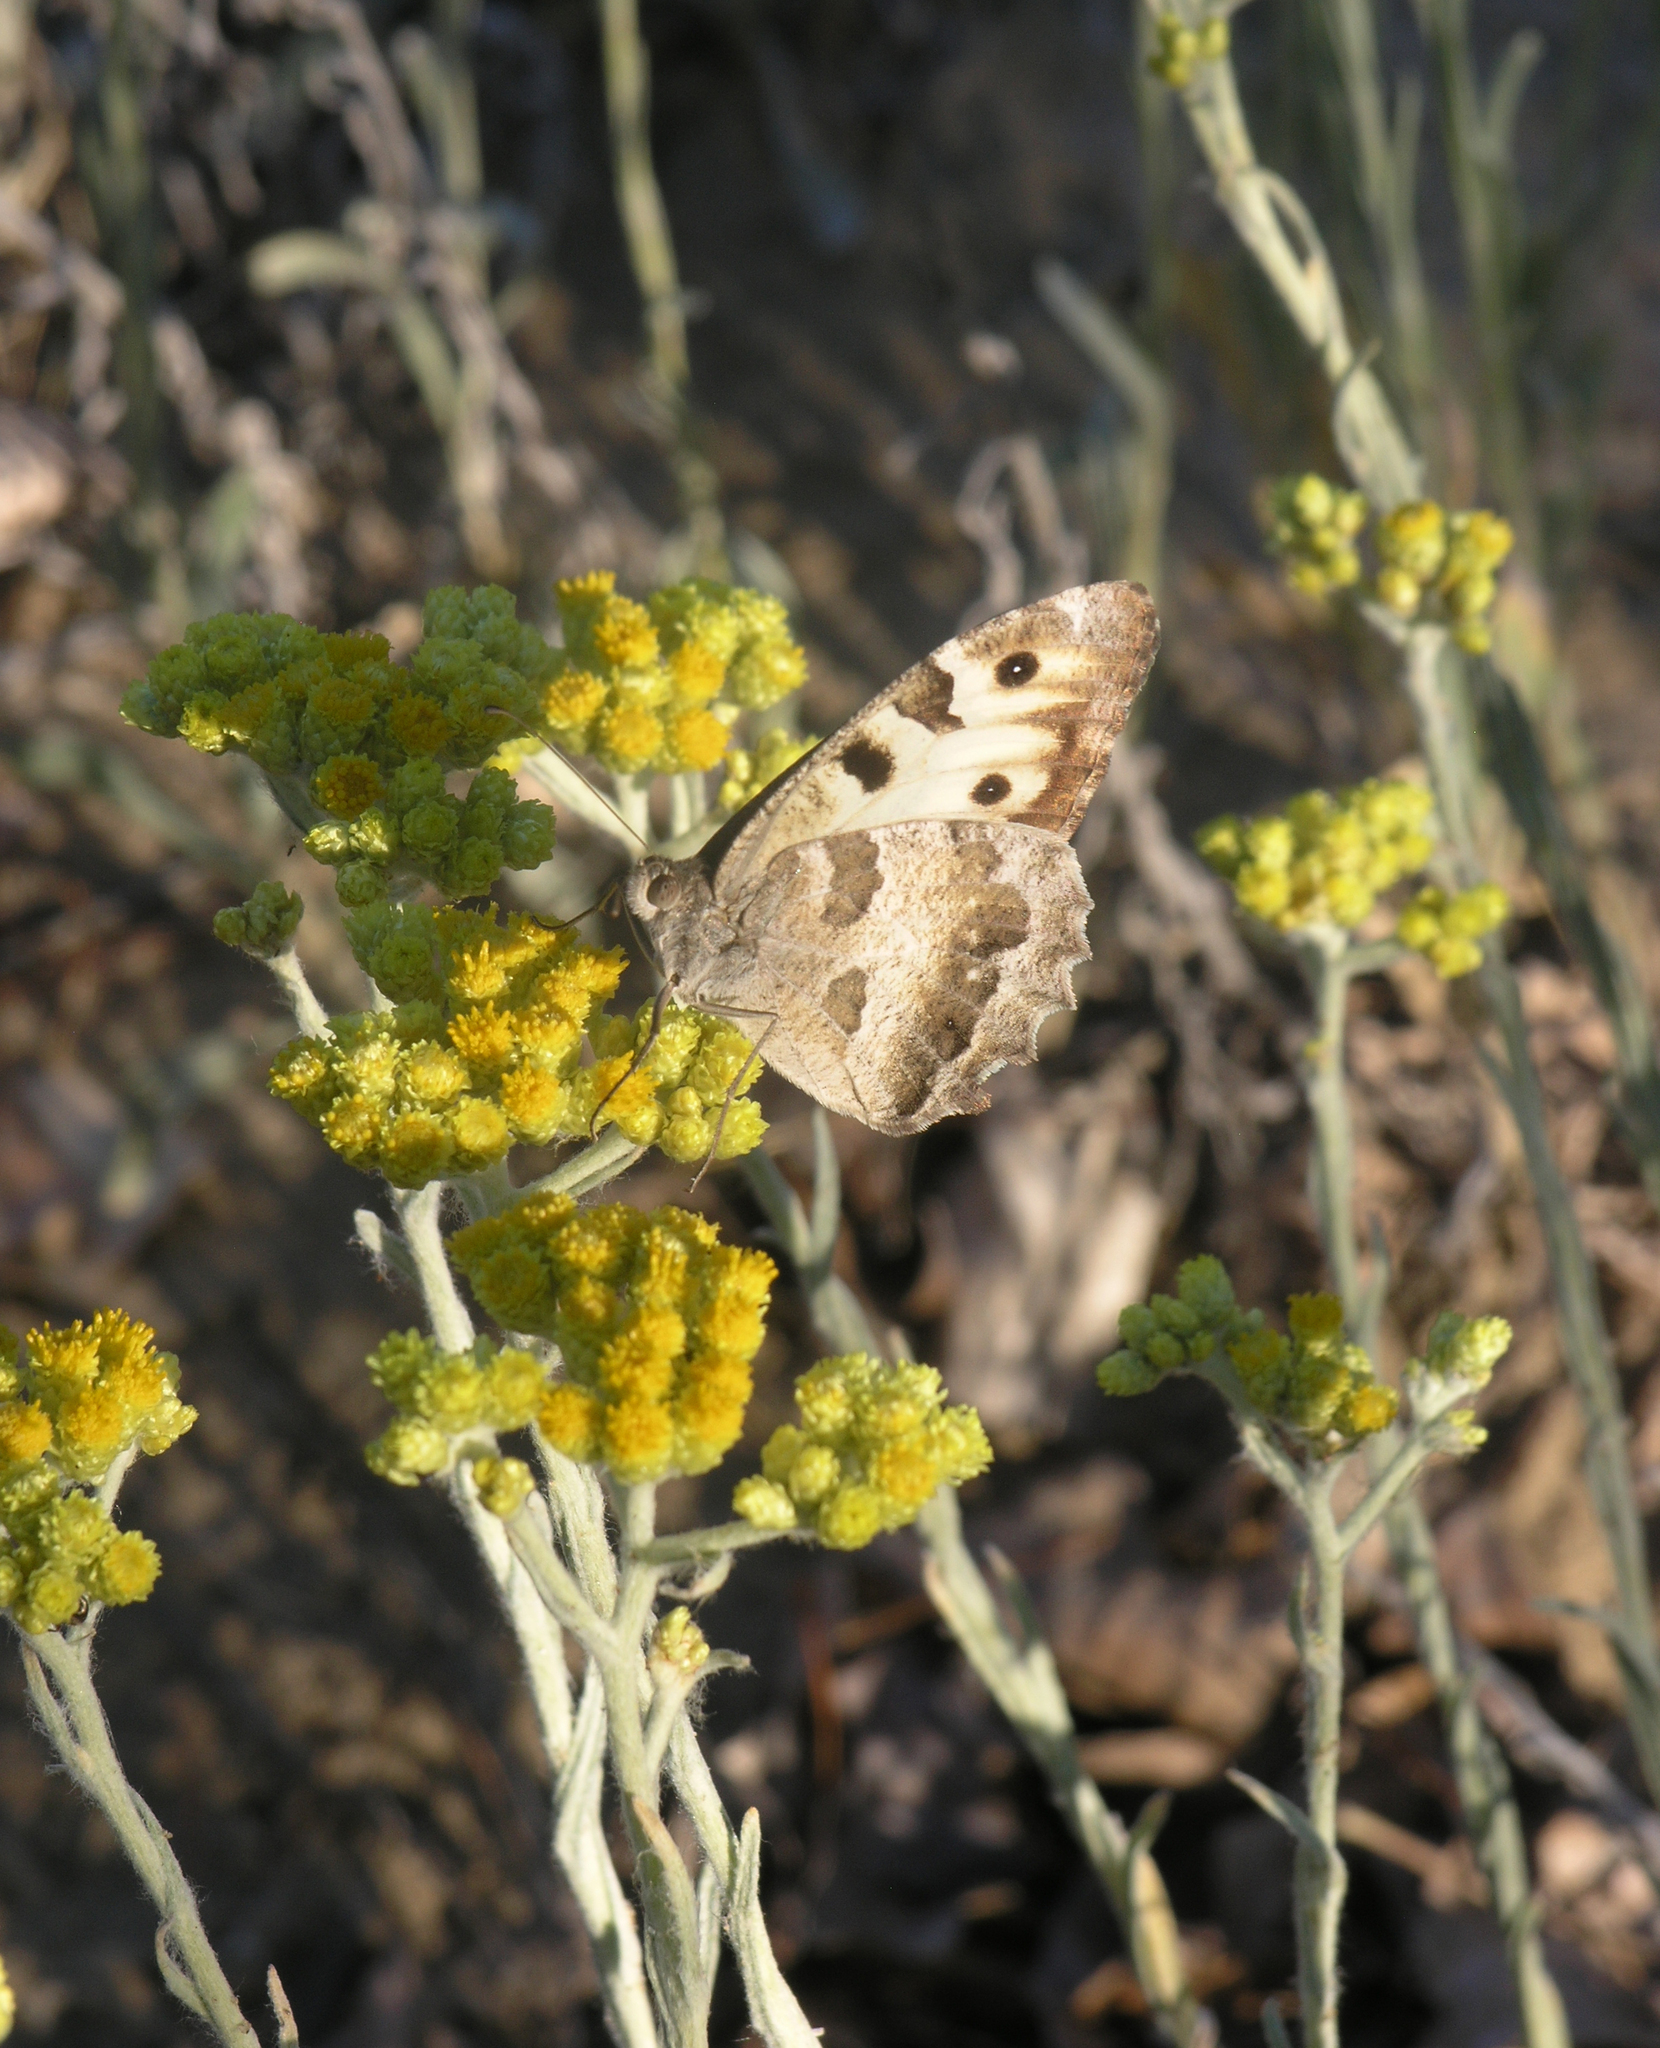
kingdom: Plantae
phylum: Tracheophyta
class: Magnoliopsida
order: Asterales
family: Asteraceae
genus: Helichrysum
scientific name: Helichrysum arenarium
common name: Strawflower
